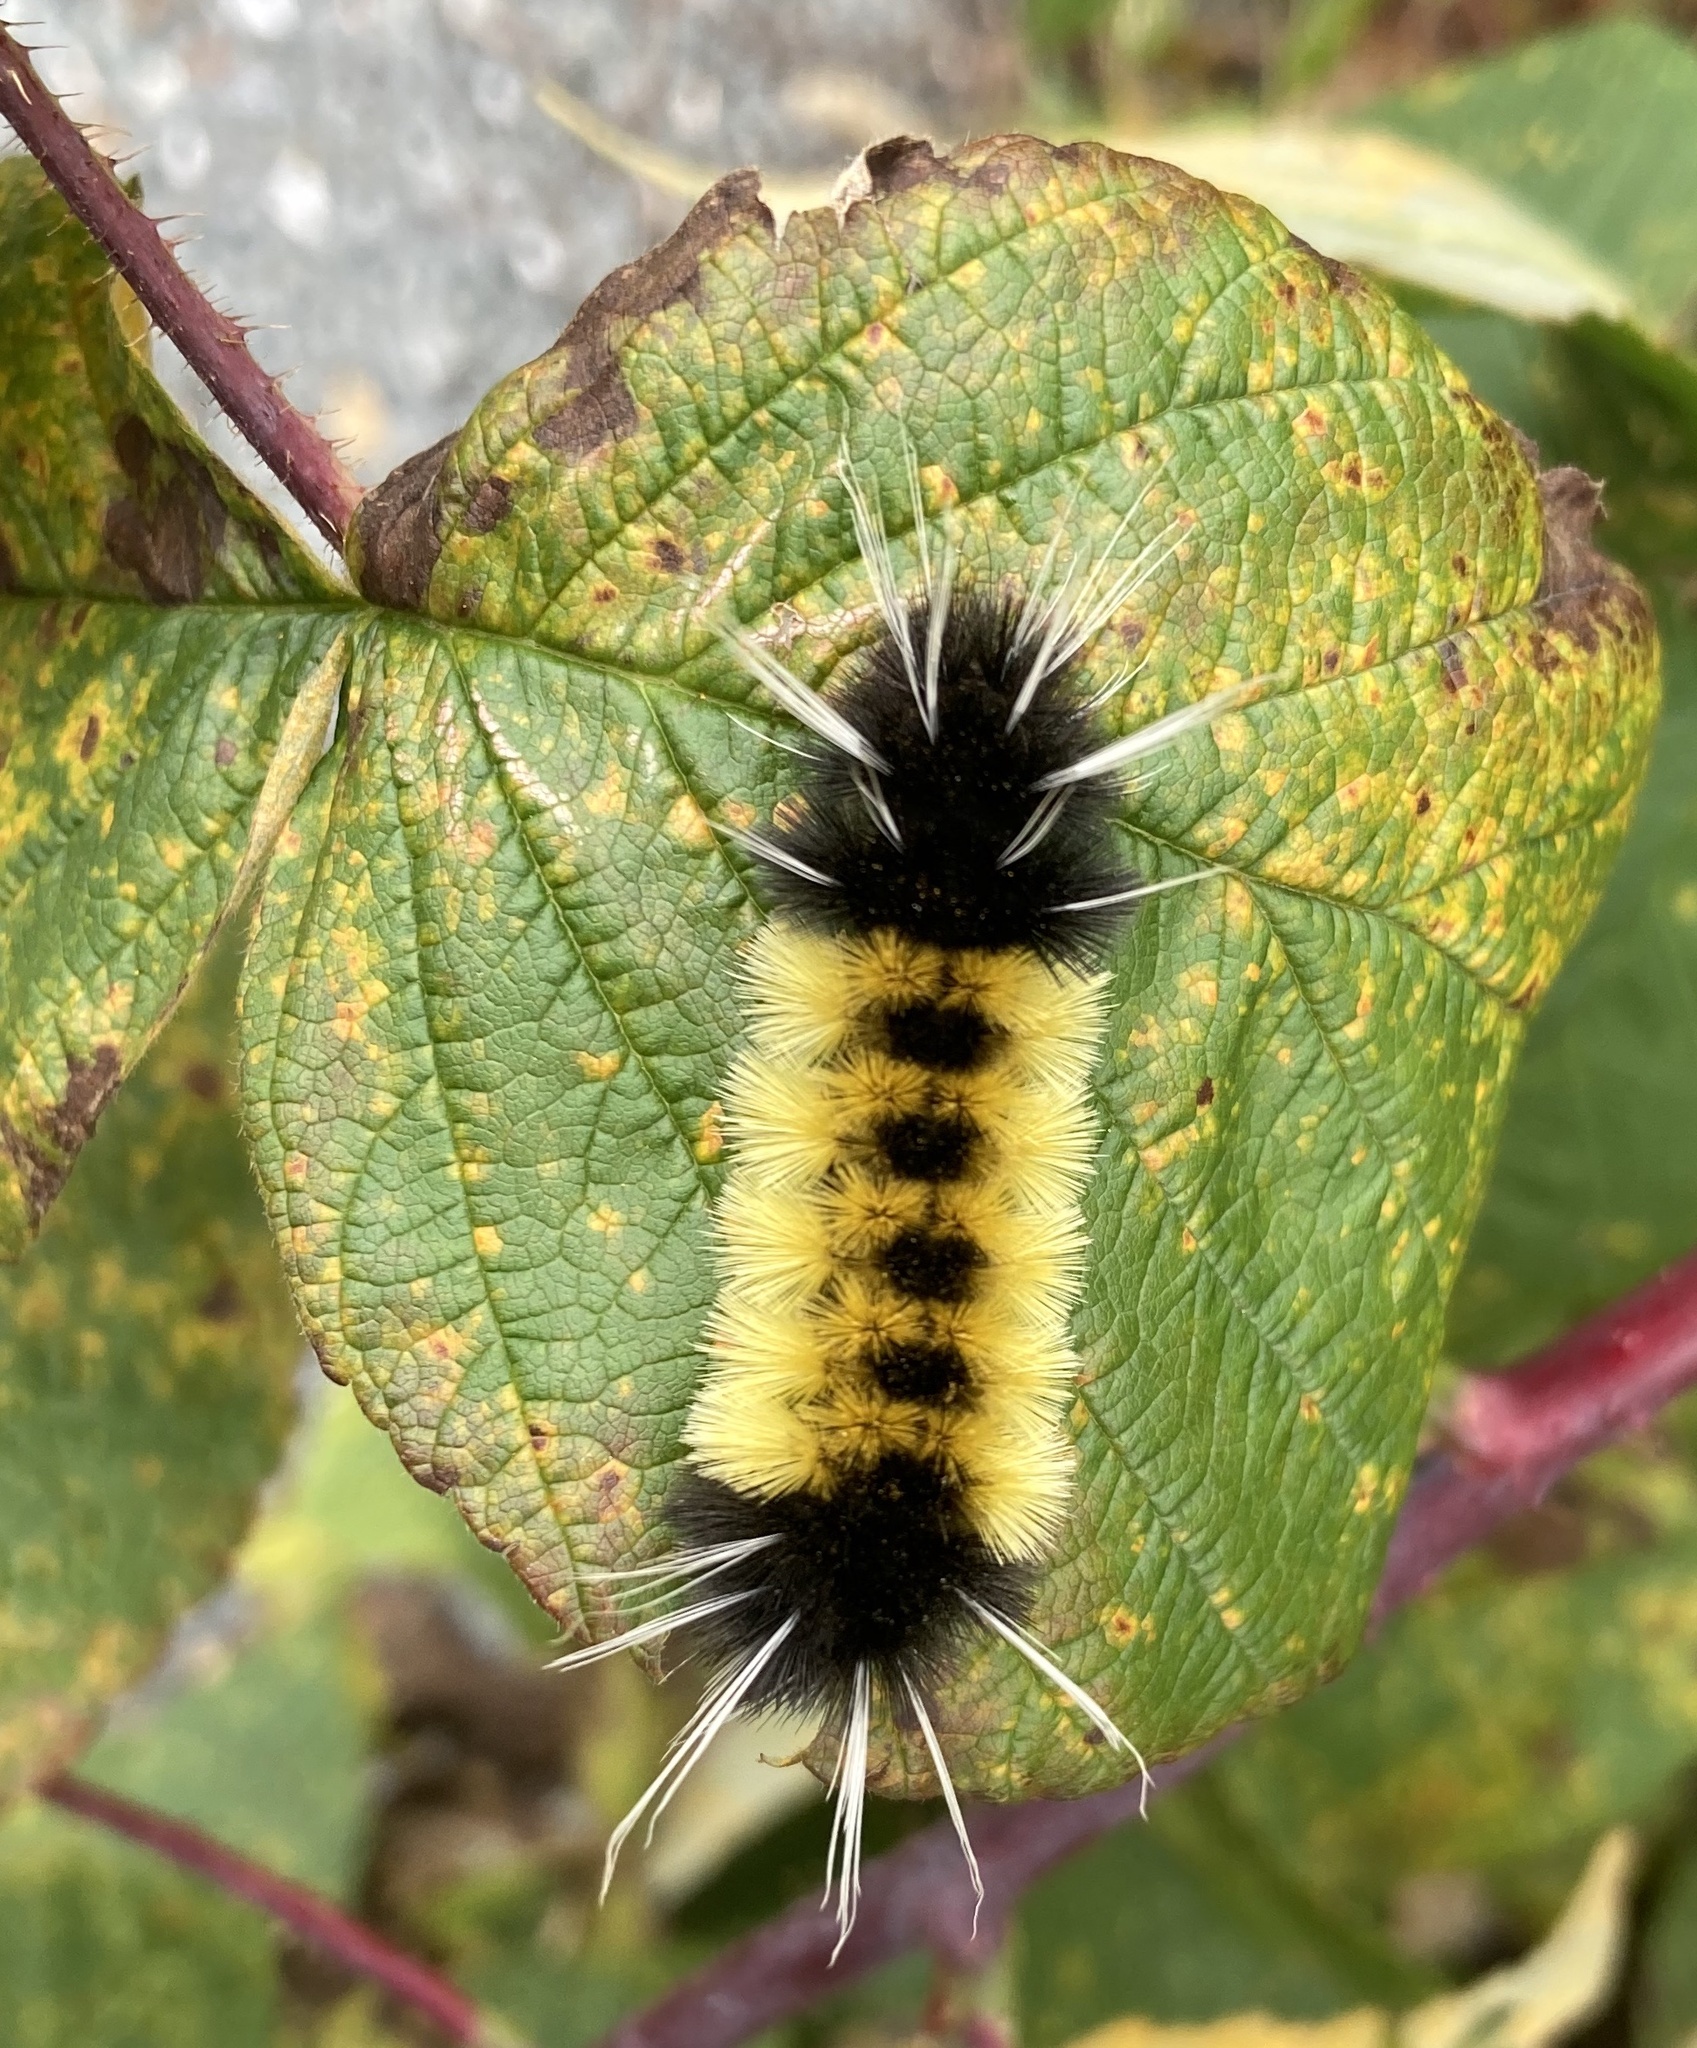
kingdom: Animalia
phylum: Arthropoda
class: Insecta
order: Lepidoptera
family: Erebidae
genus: Lophocampa
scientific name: Lophocampa maculata
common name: Spotted tussock moth
